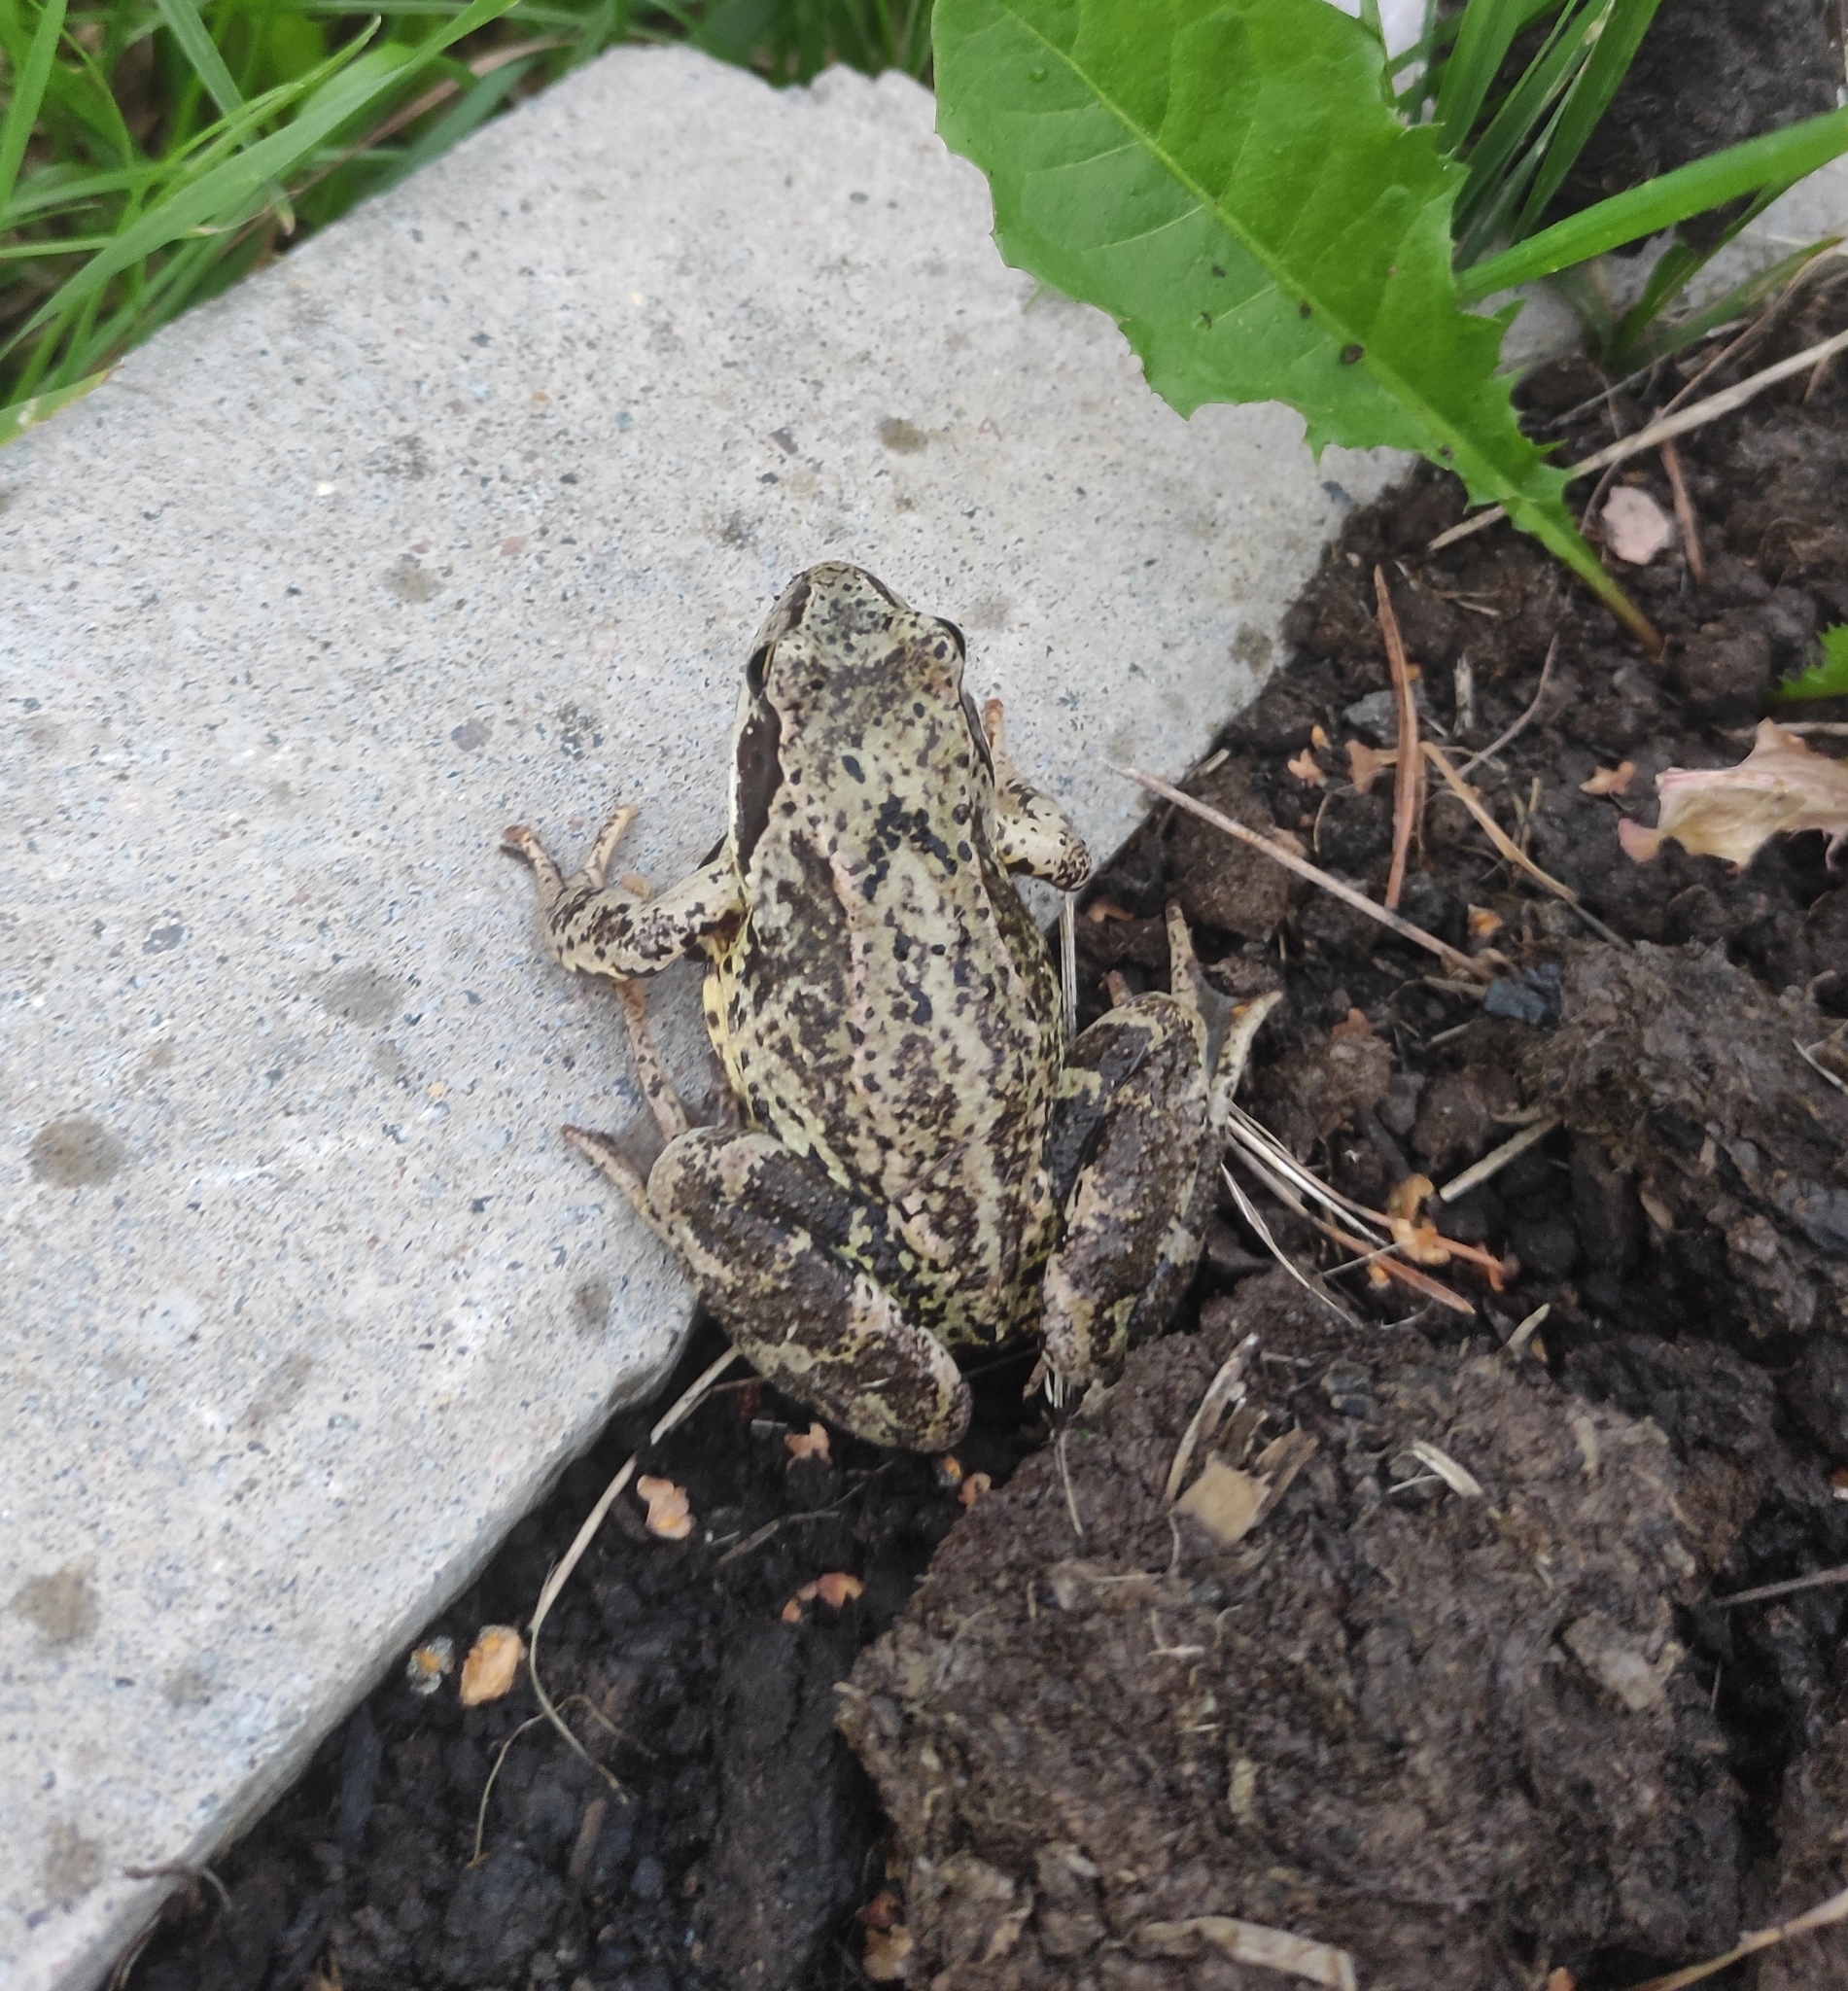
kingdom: Animalia
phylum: Chordata
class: Amphibia
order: Anura
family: Ranidae
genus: Rana
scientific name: Rana temporaria
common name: Common frog
